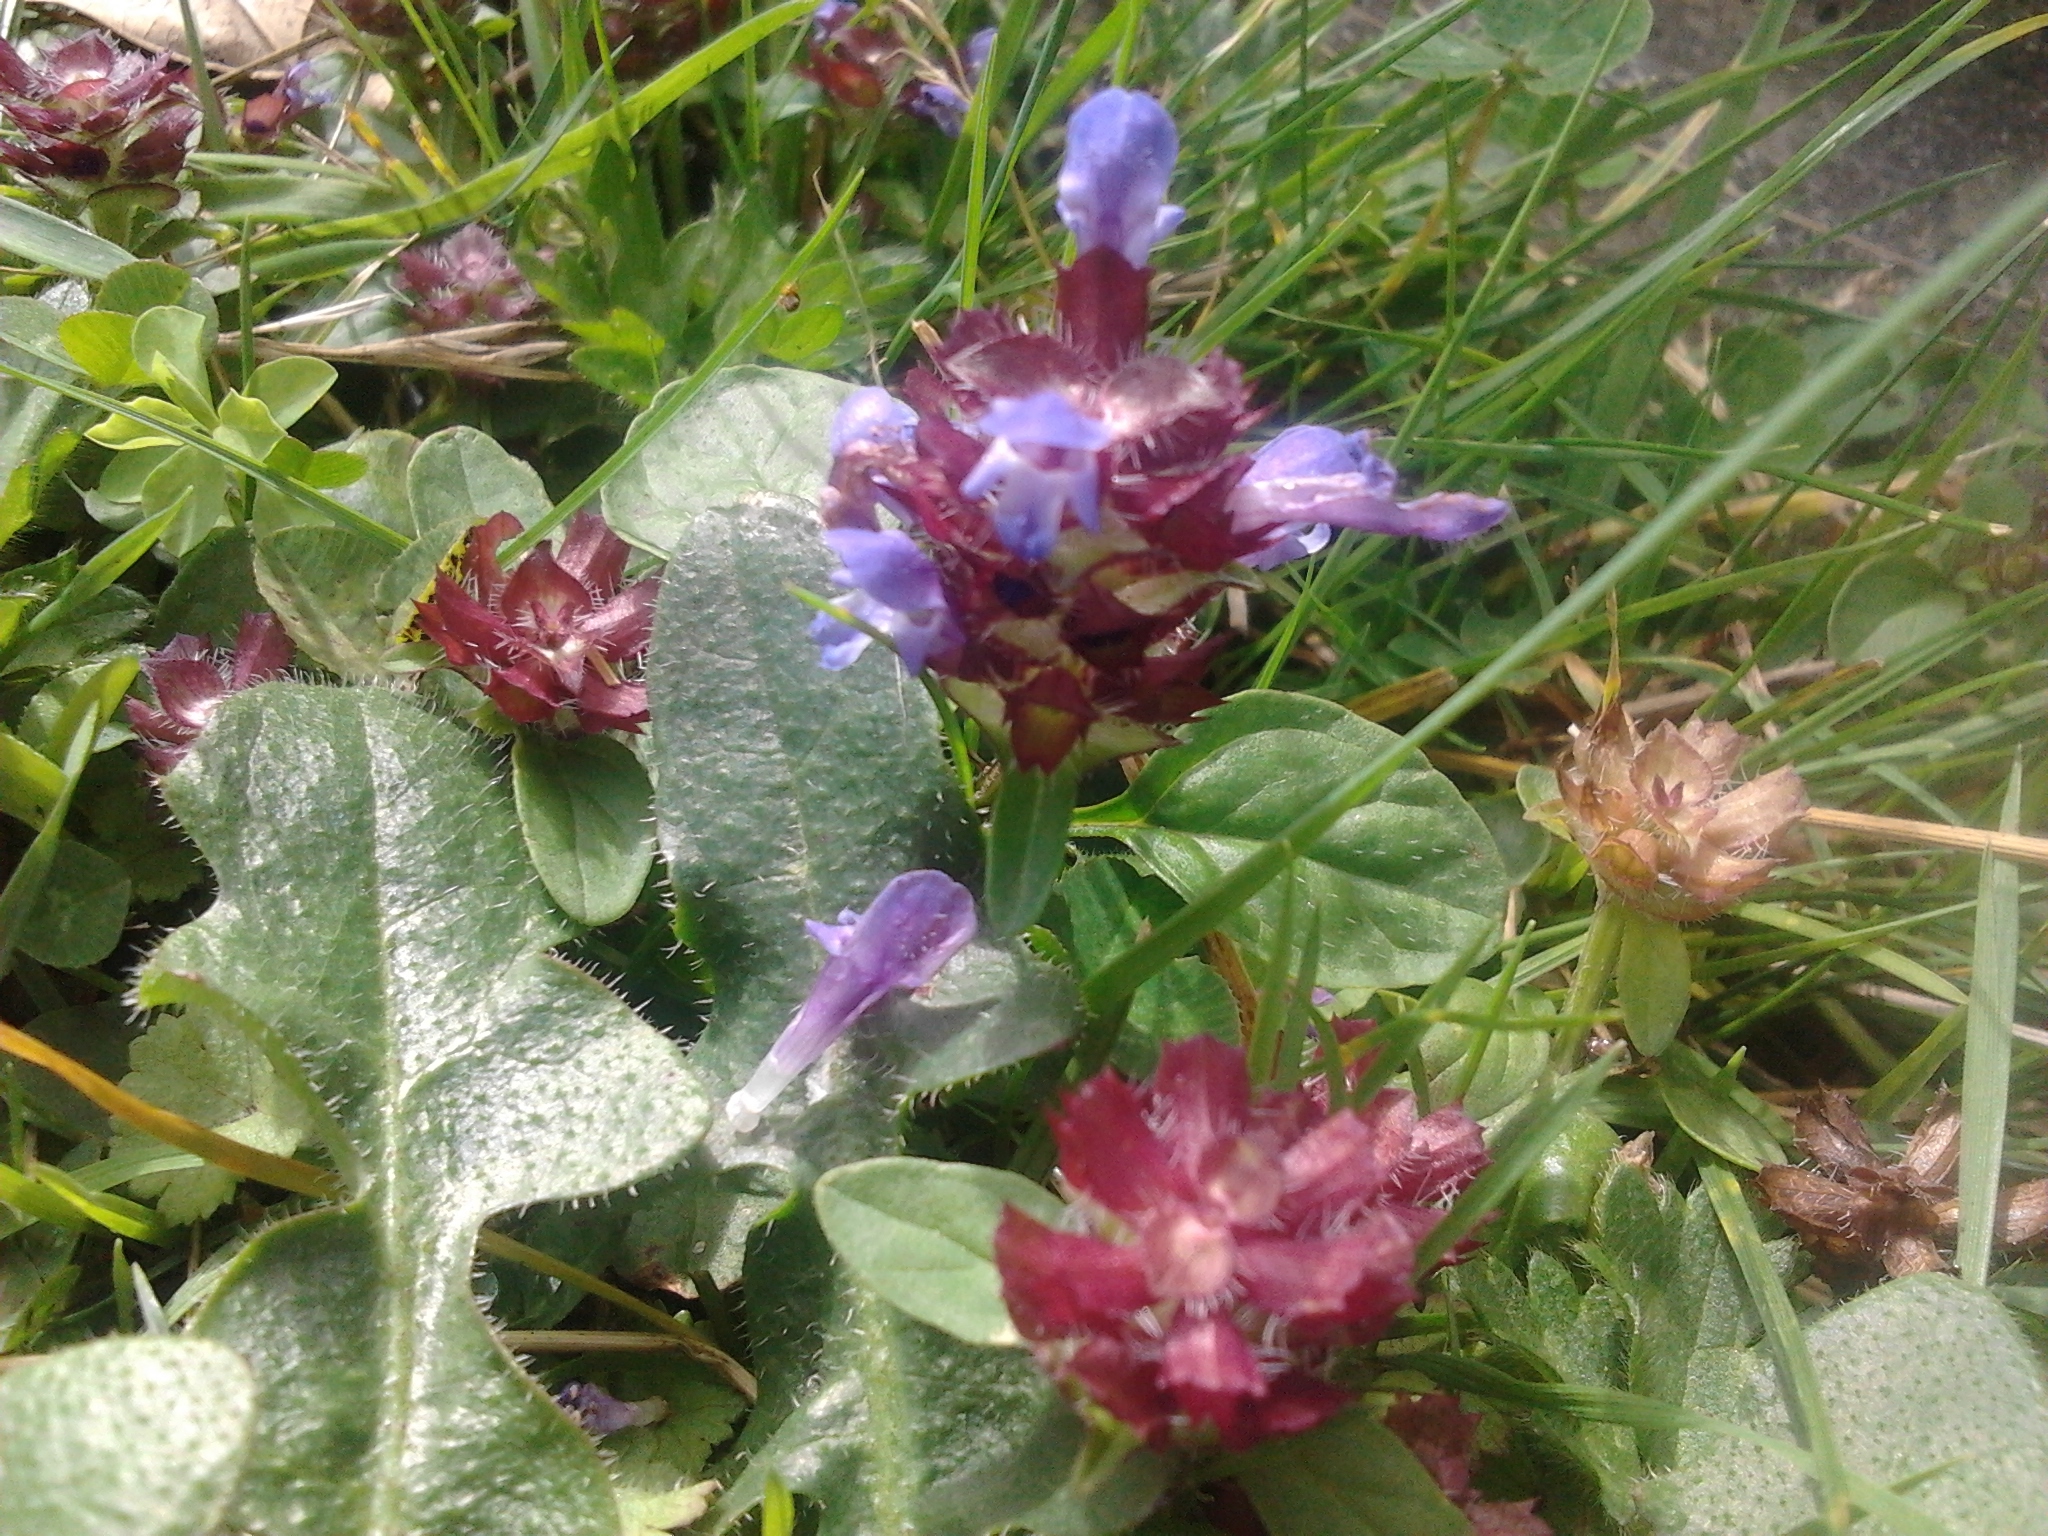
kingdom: Plantae
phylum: Tracheophyta
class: Magnoliopsida
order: Lamiales
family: Lamiaceae
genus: Prunella
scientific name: Prunella vulgaris
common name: Heal-all
